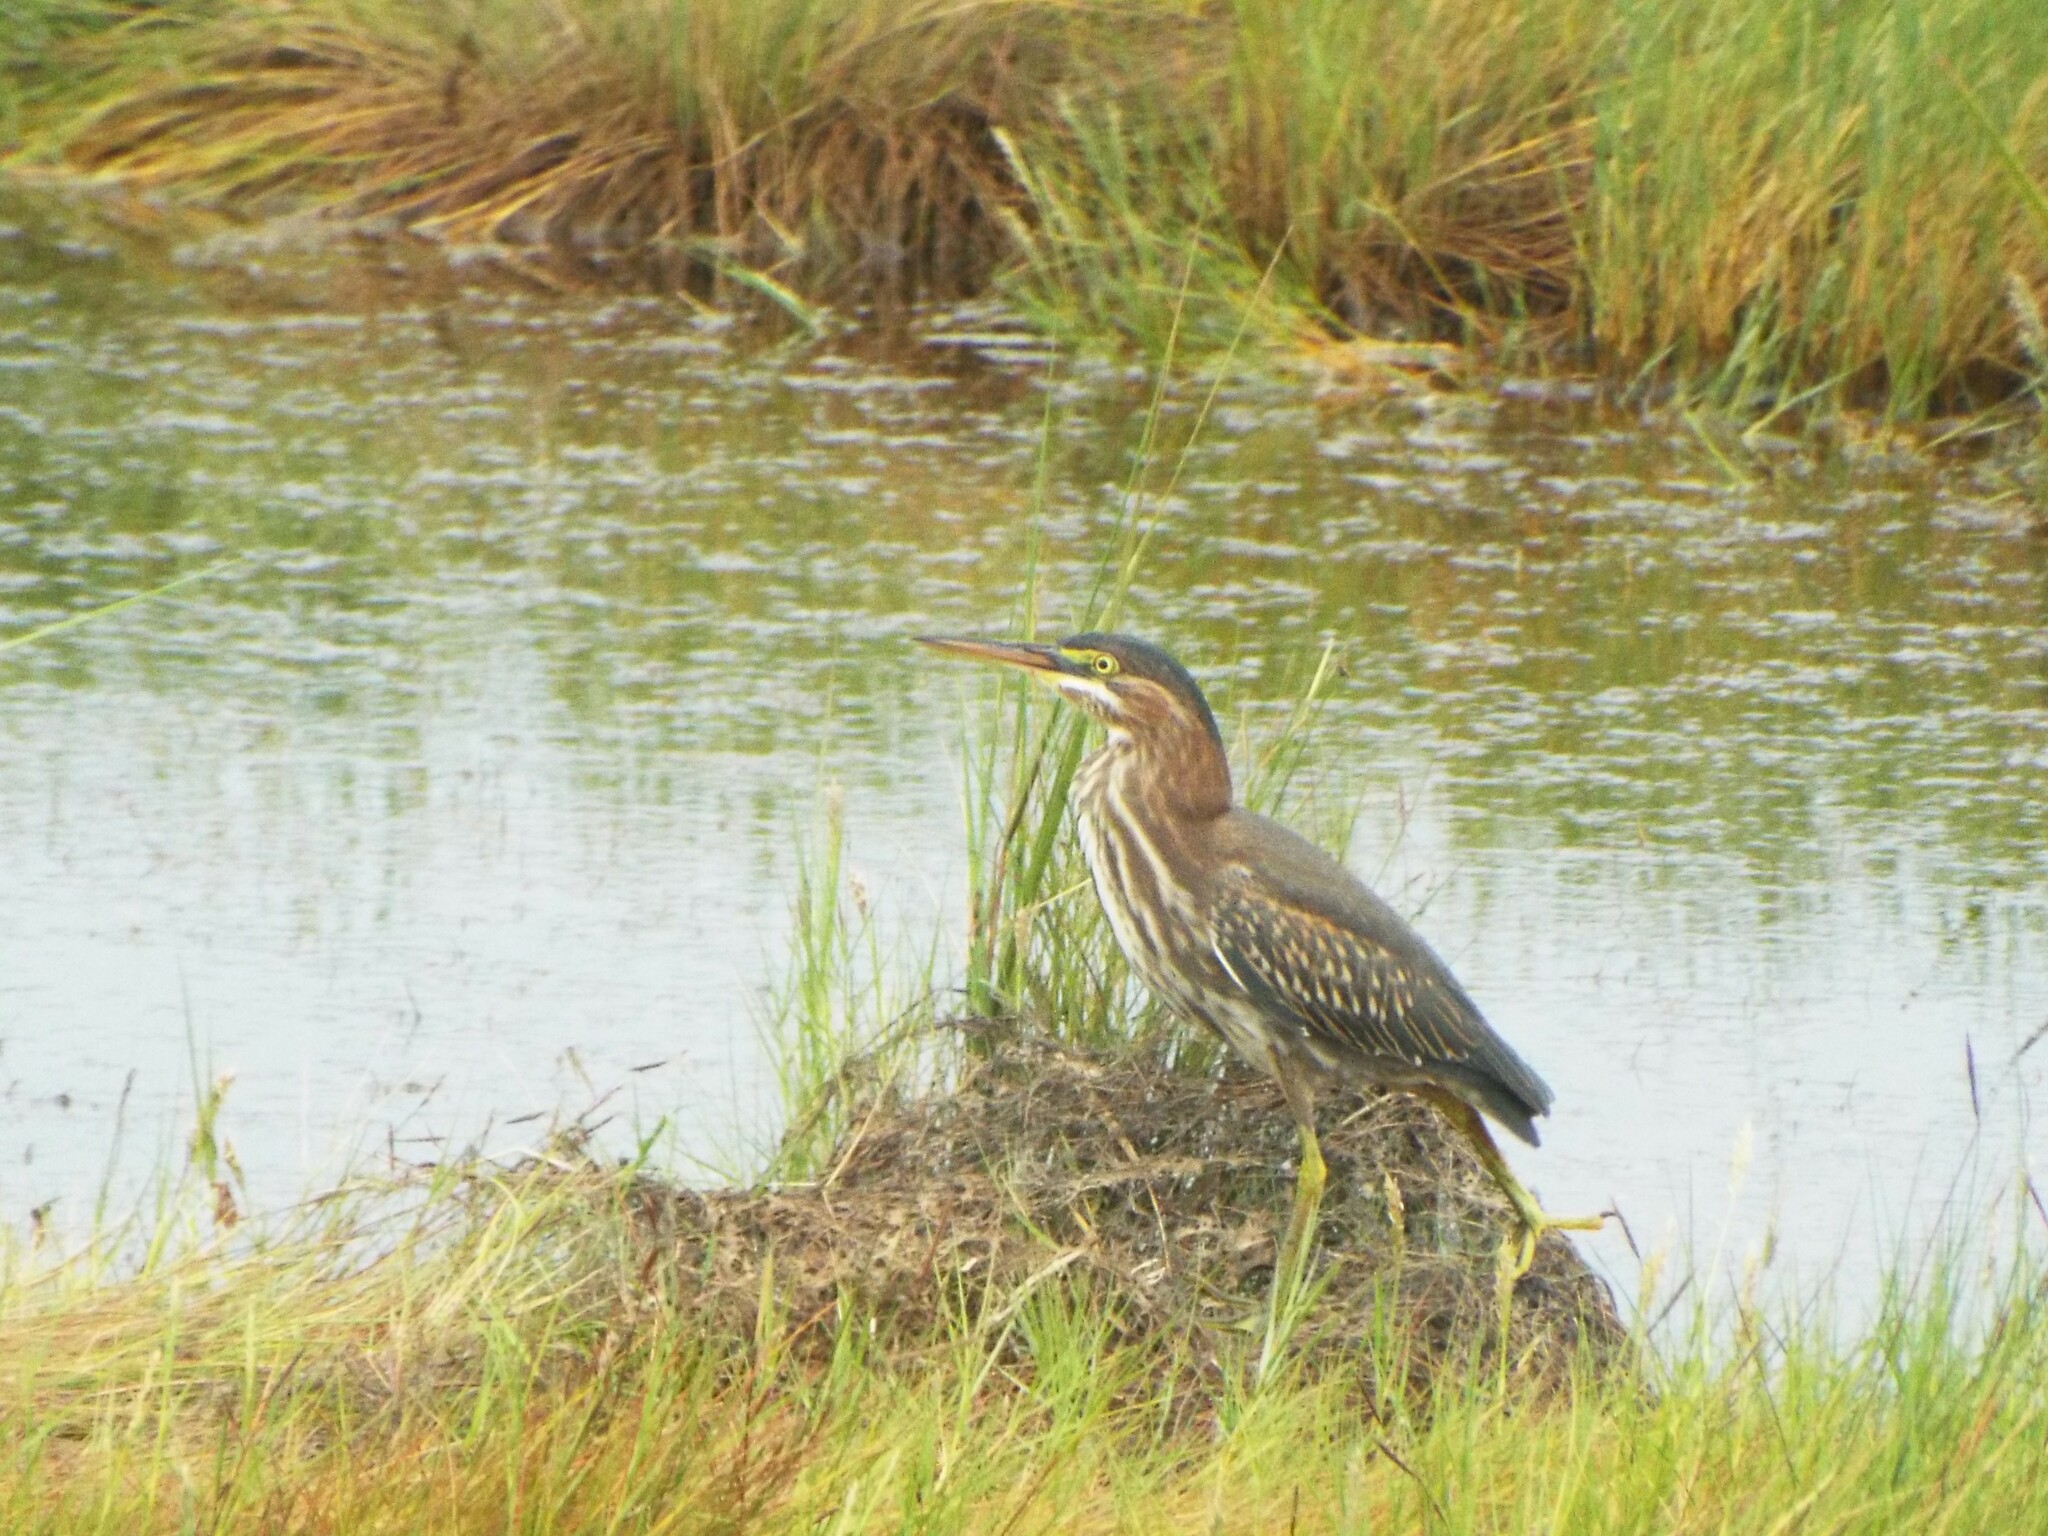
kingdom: Animalia
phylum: Chordata
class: Aves
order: Pelecaniformes
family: Ardeidae
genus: Butorides
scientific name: Butorides virescens
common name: Green heron
